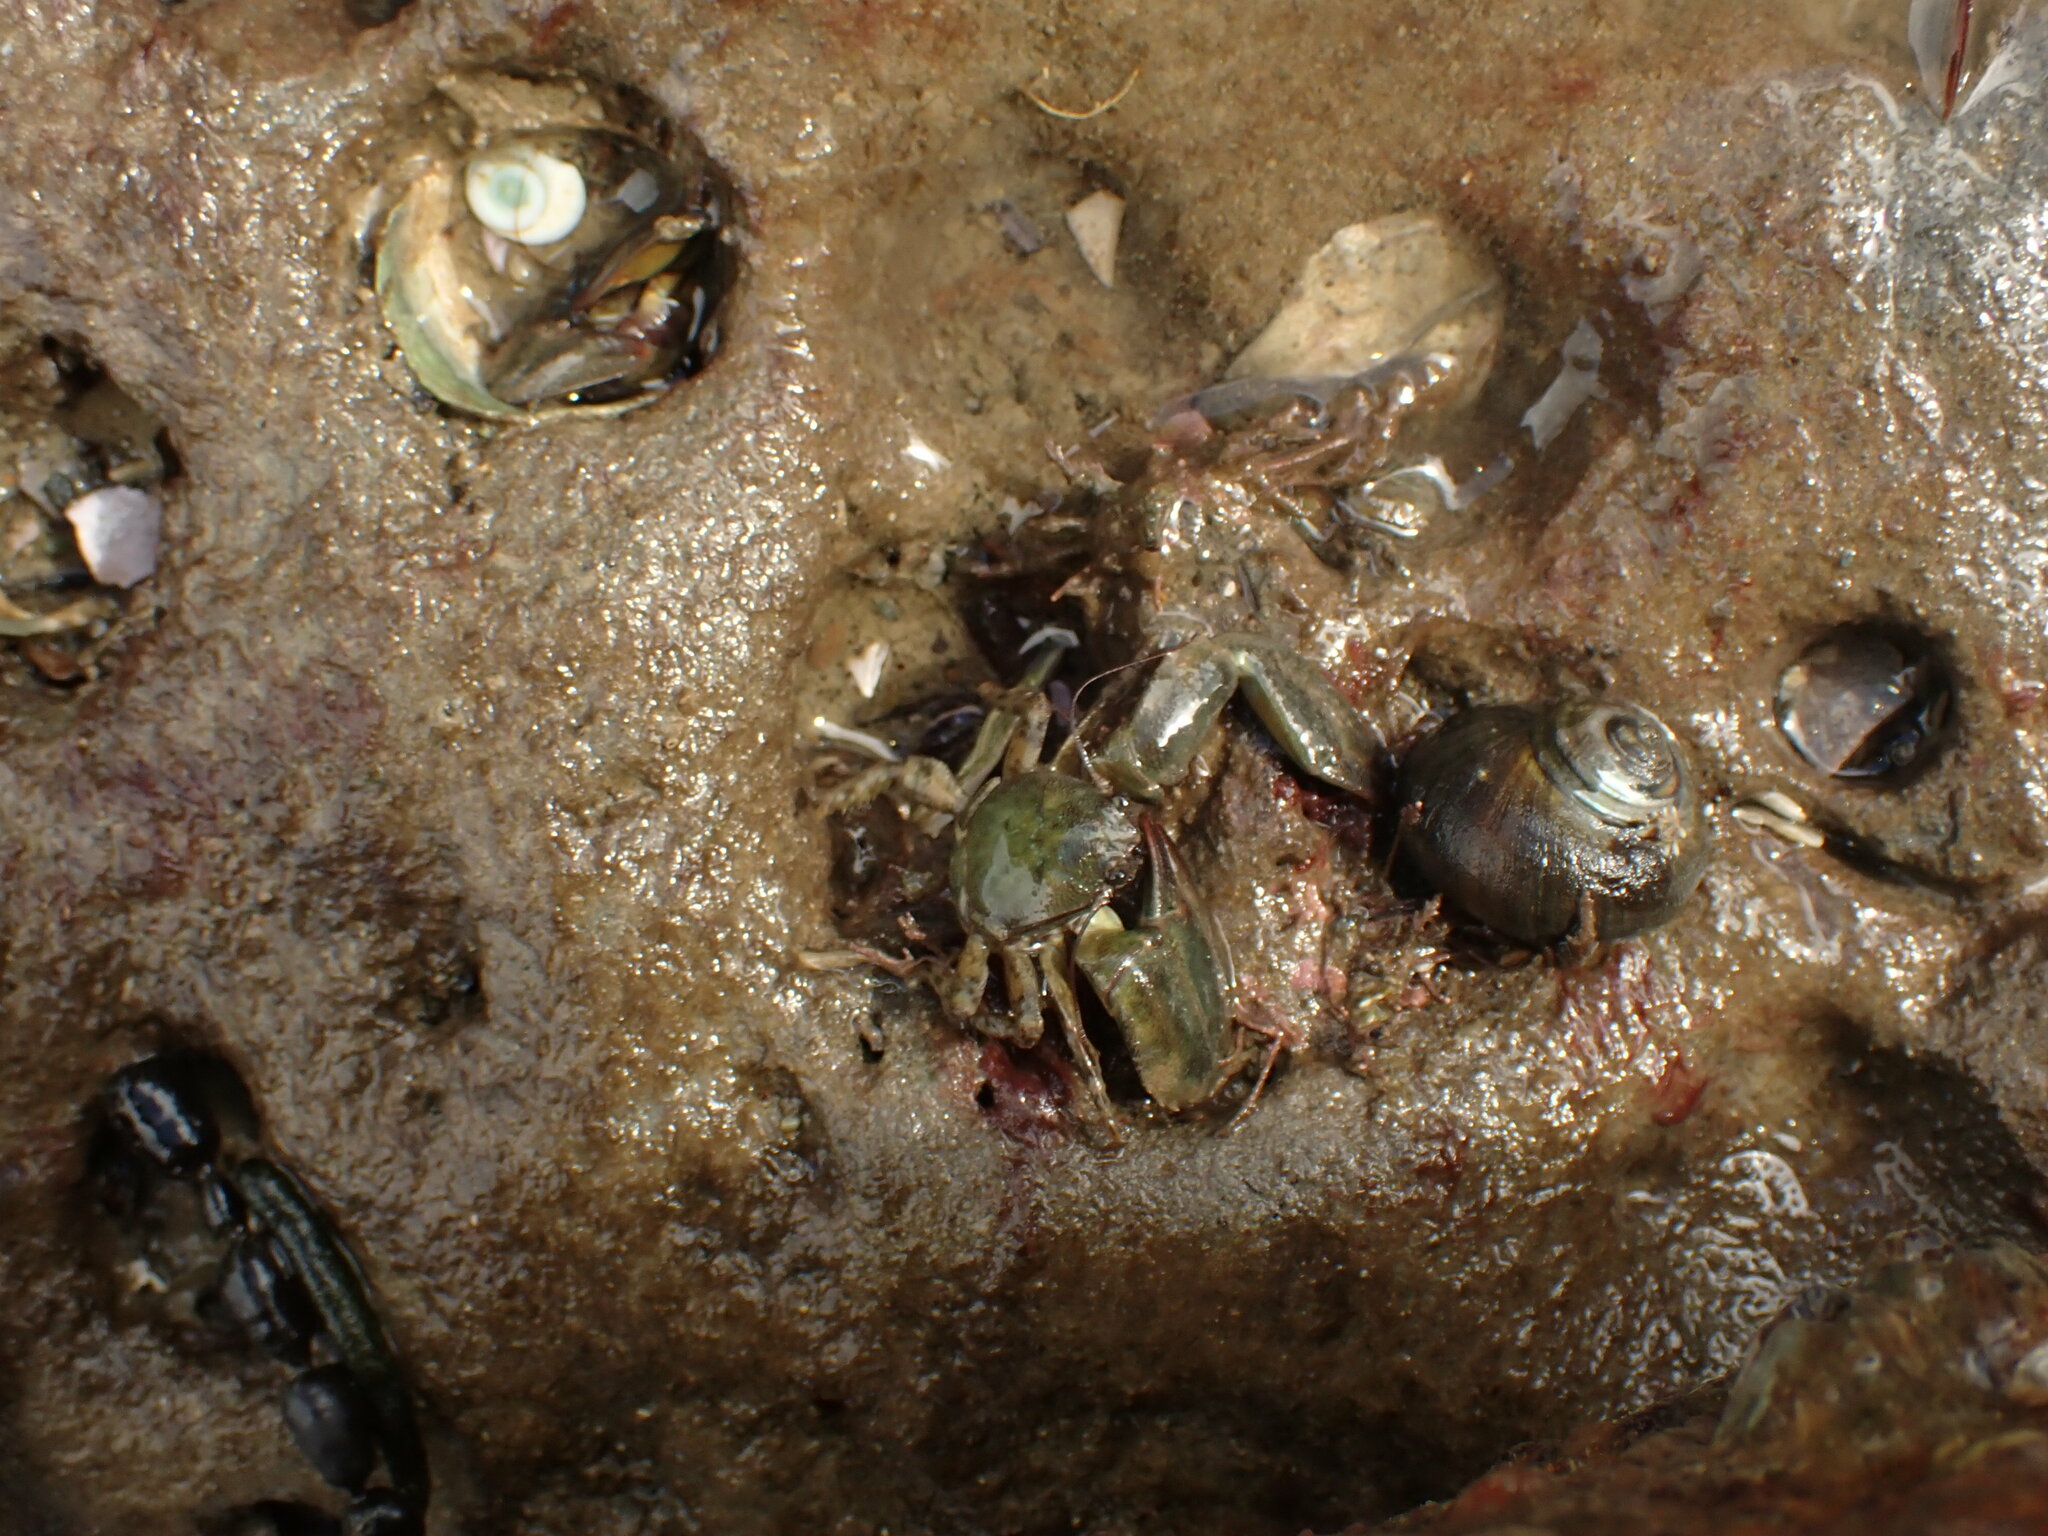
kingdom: Animalia
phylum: Arthropoda
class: Malacostraca
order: Decapoda
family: Porcellanidae
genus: Petrolisthes
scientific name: Petrolisthes elongatus
